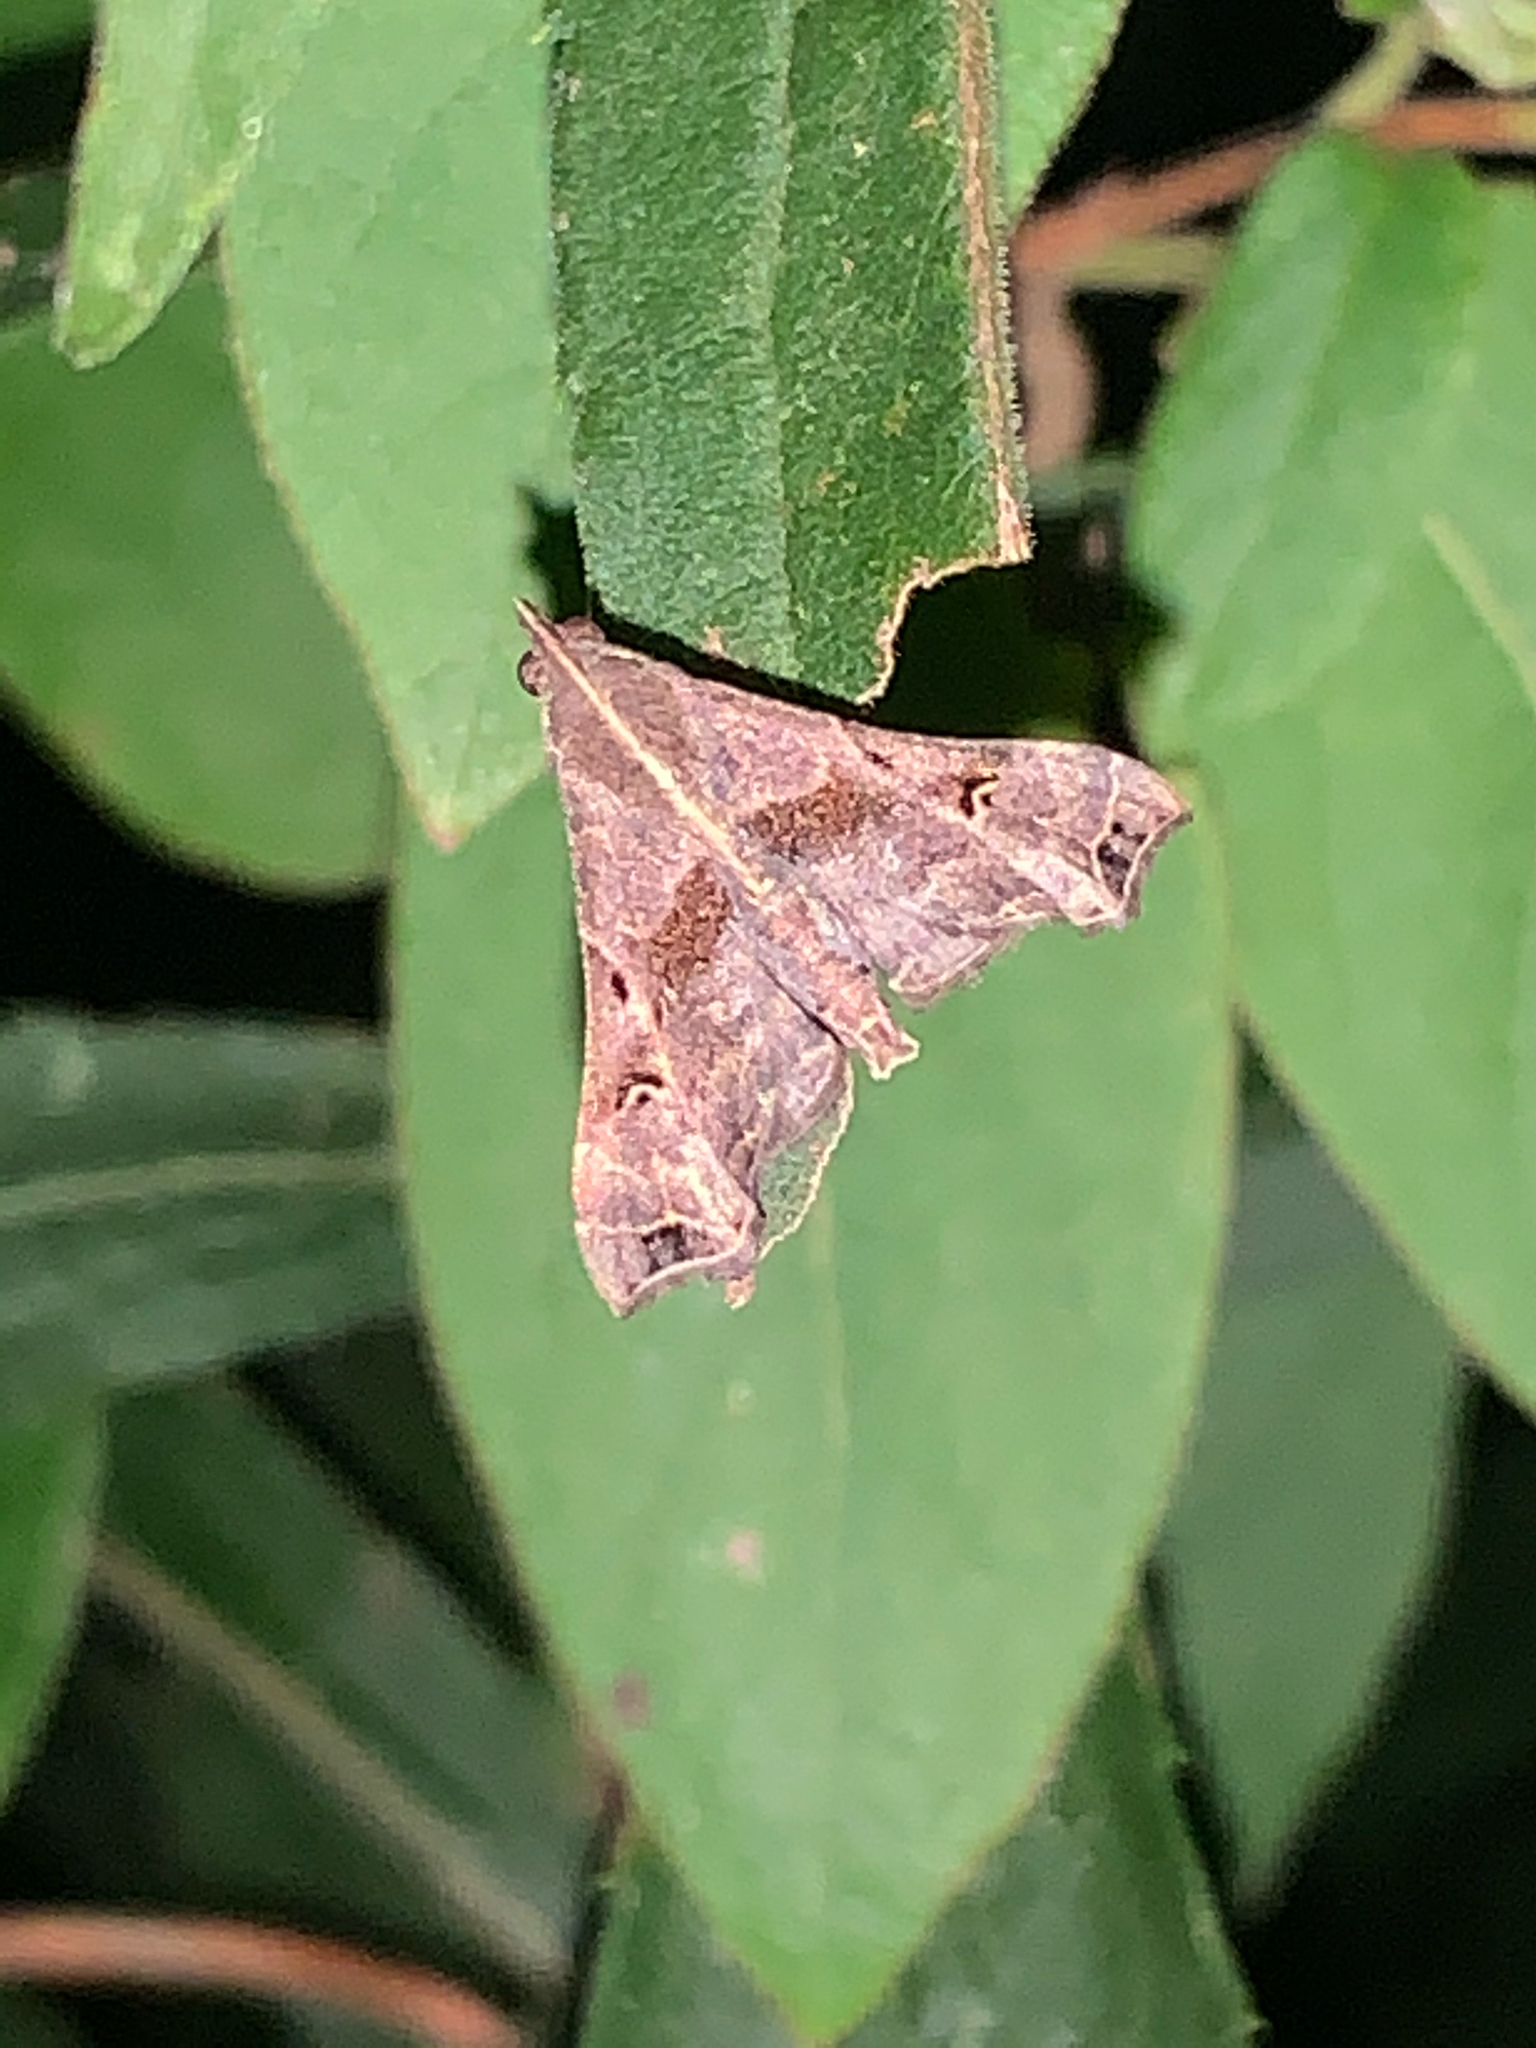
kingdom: Animalia
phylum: Arthropoda
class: Insecta
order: Lepidoptera
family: Erebidae
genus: Palthis
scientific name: Palthis asopialis
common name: Faint-spotted palthis moth
